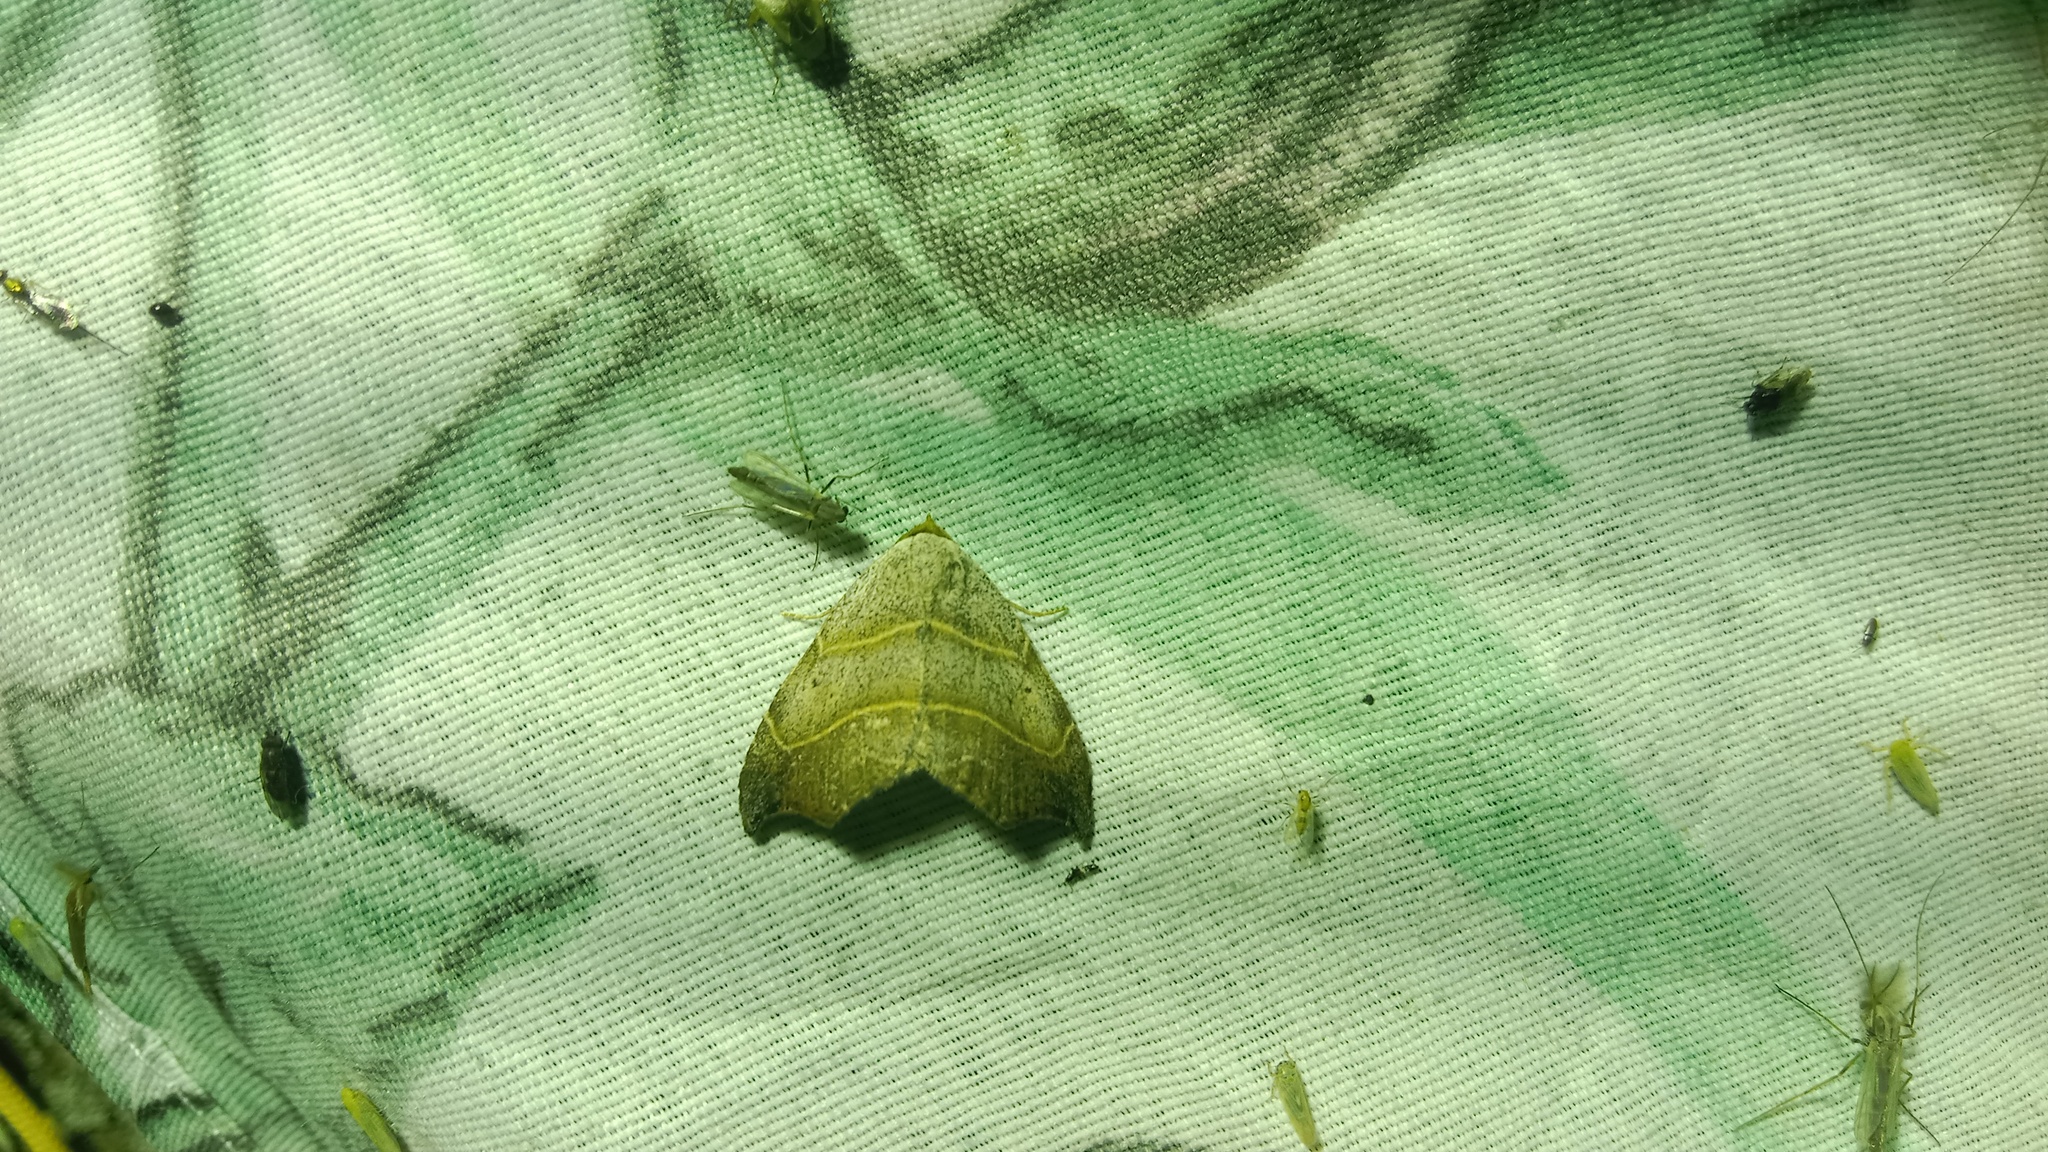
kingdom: Animalia
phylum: Arthropoda
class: Insecta
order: Lepidoptera
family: Erebidae
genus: Laspeyria
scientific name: Laspeyria flexula
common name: Beautiful hook-tip
